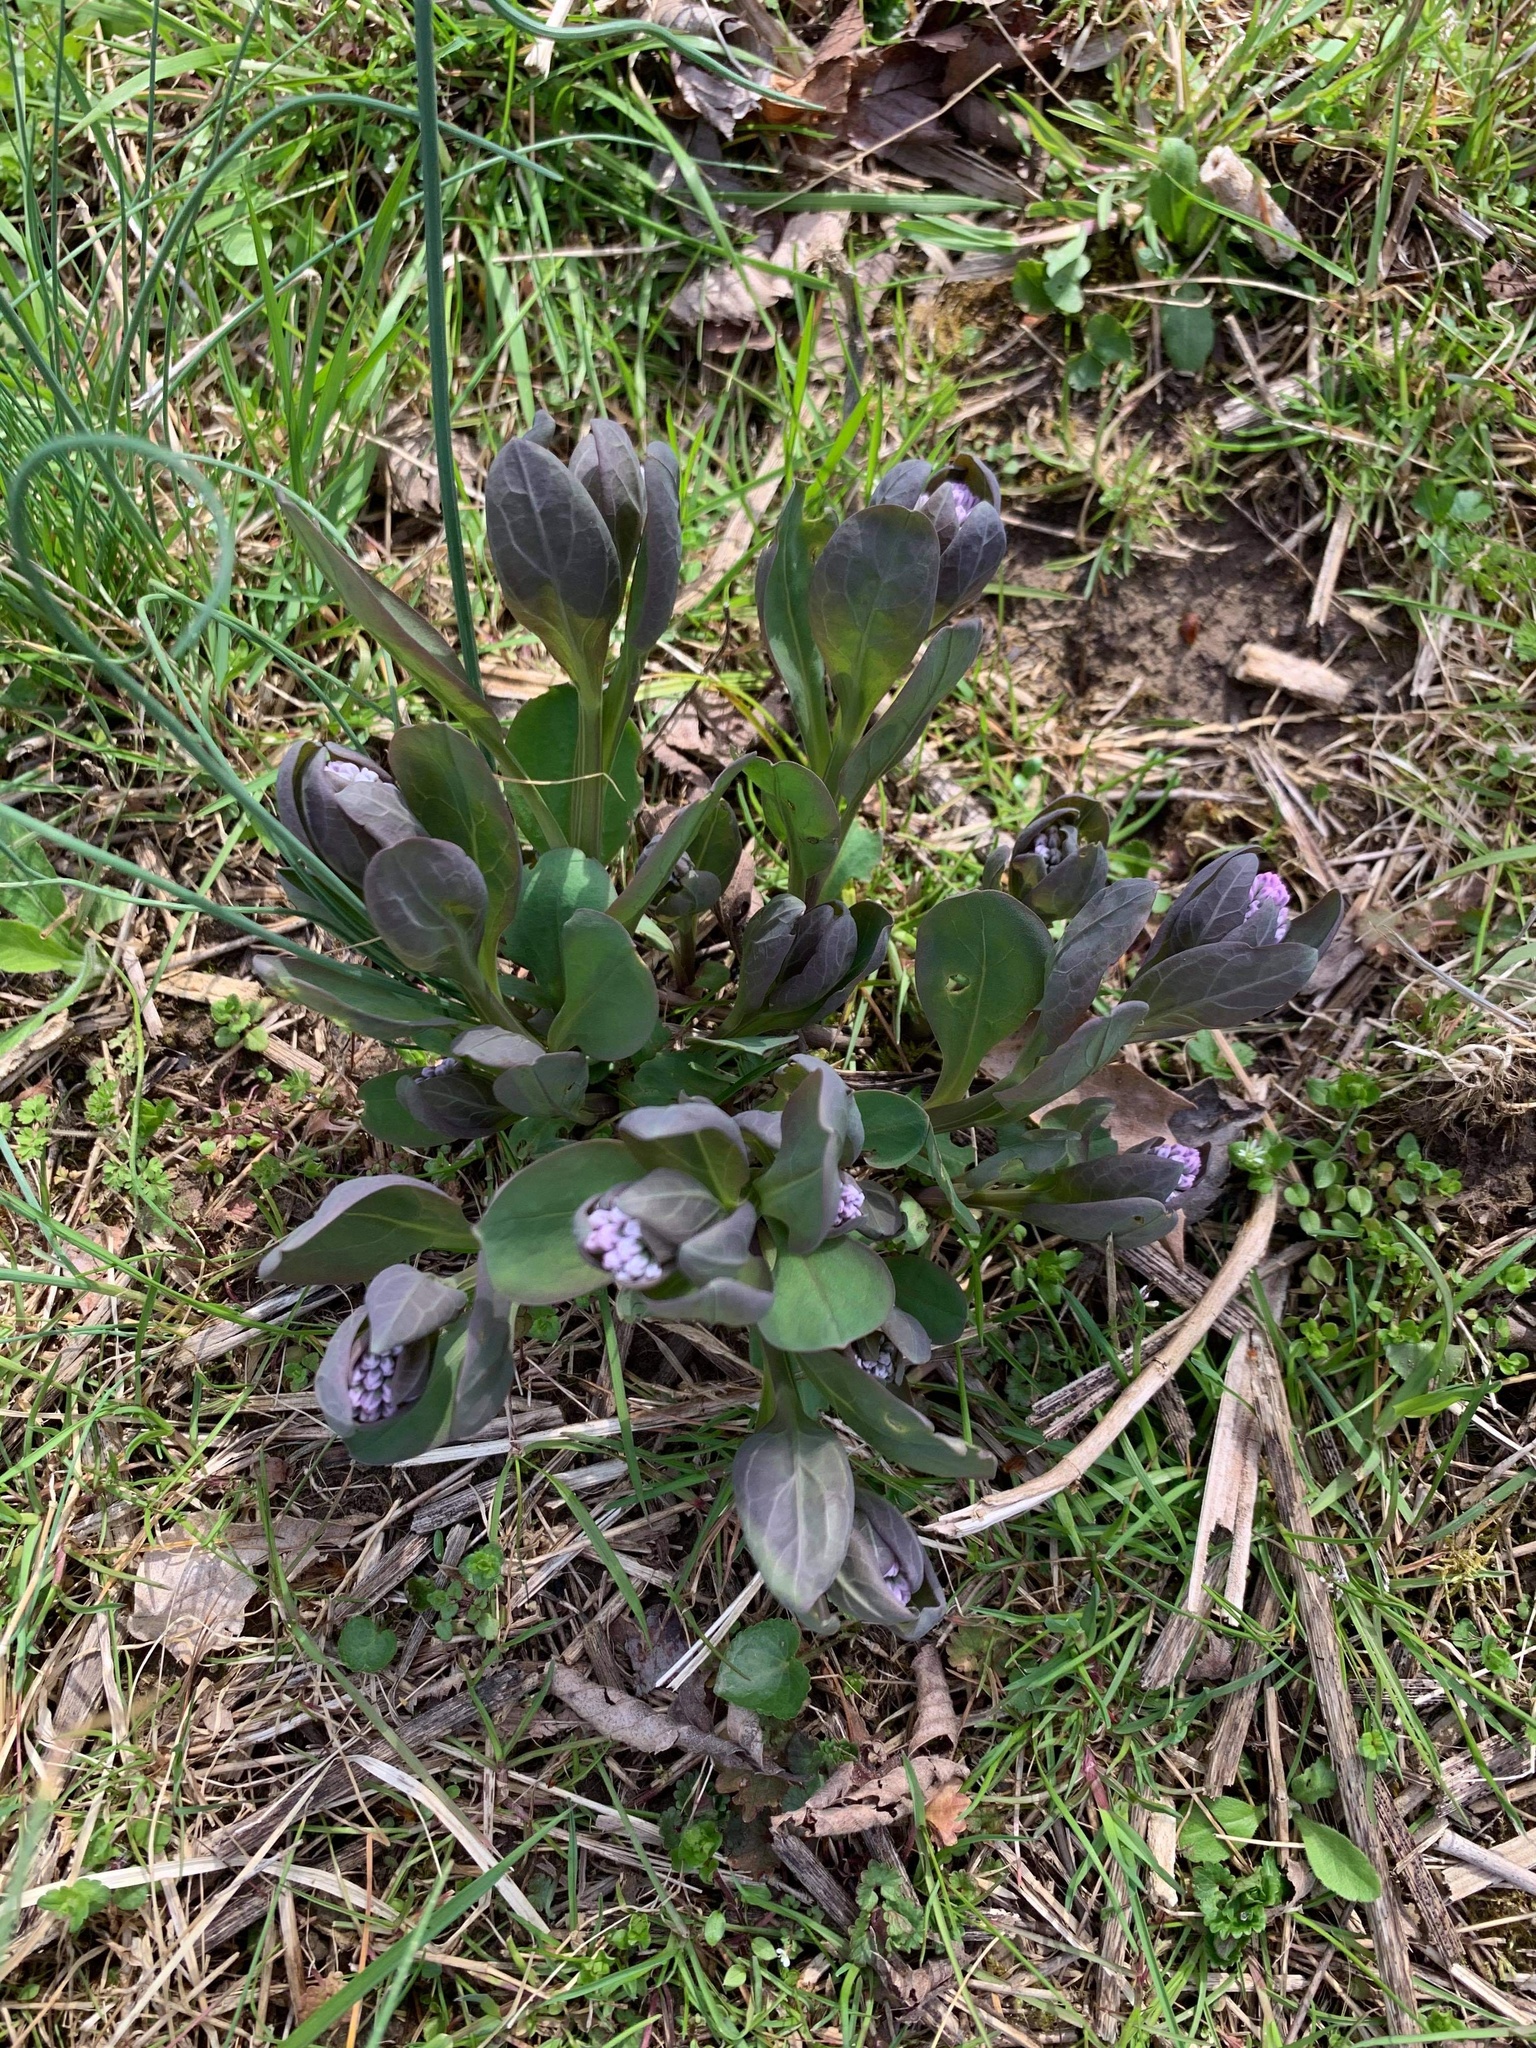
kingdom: Plantae
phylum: Tracheophyta
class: Magnoliopsida
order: Boraginales
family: Boraginaceae
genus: Mertensia
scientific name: Mertensia virginica
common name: Virginia bluebells
